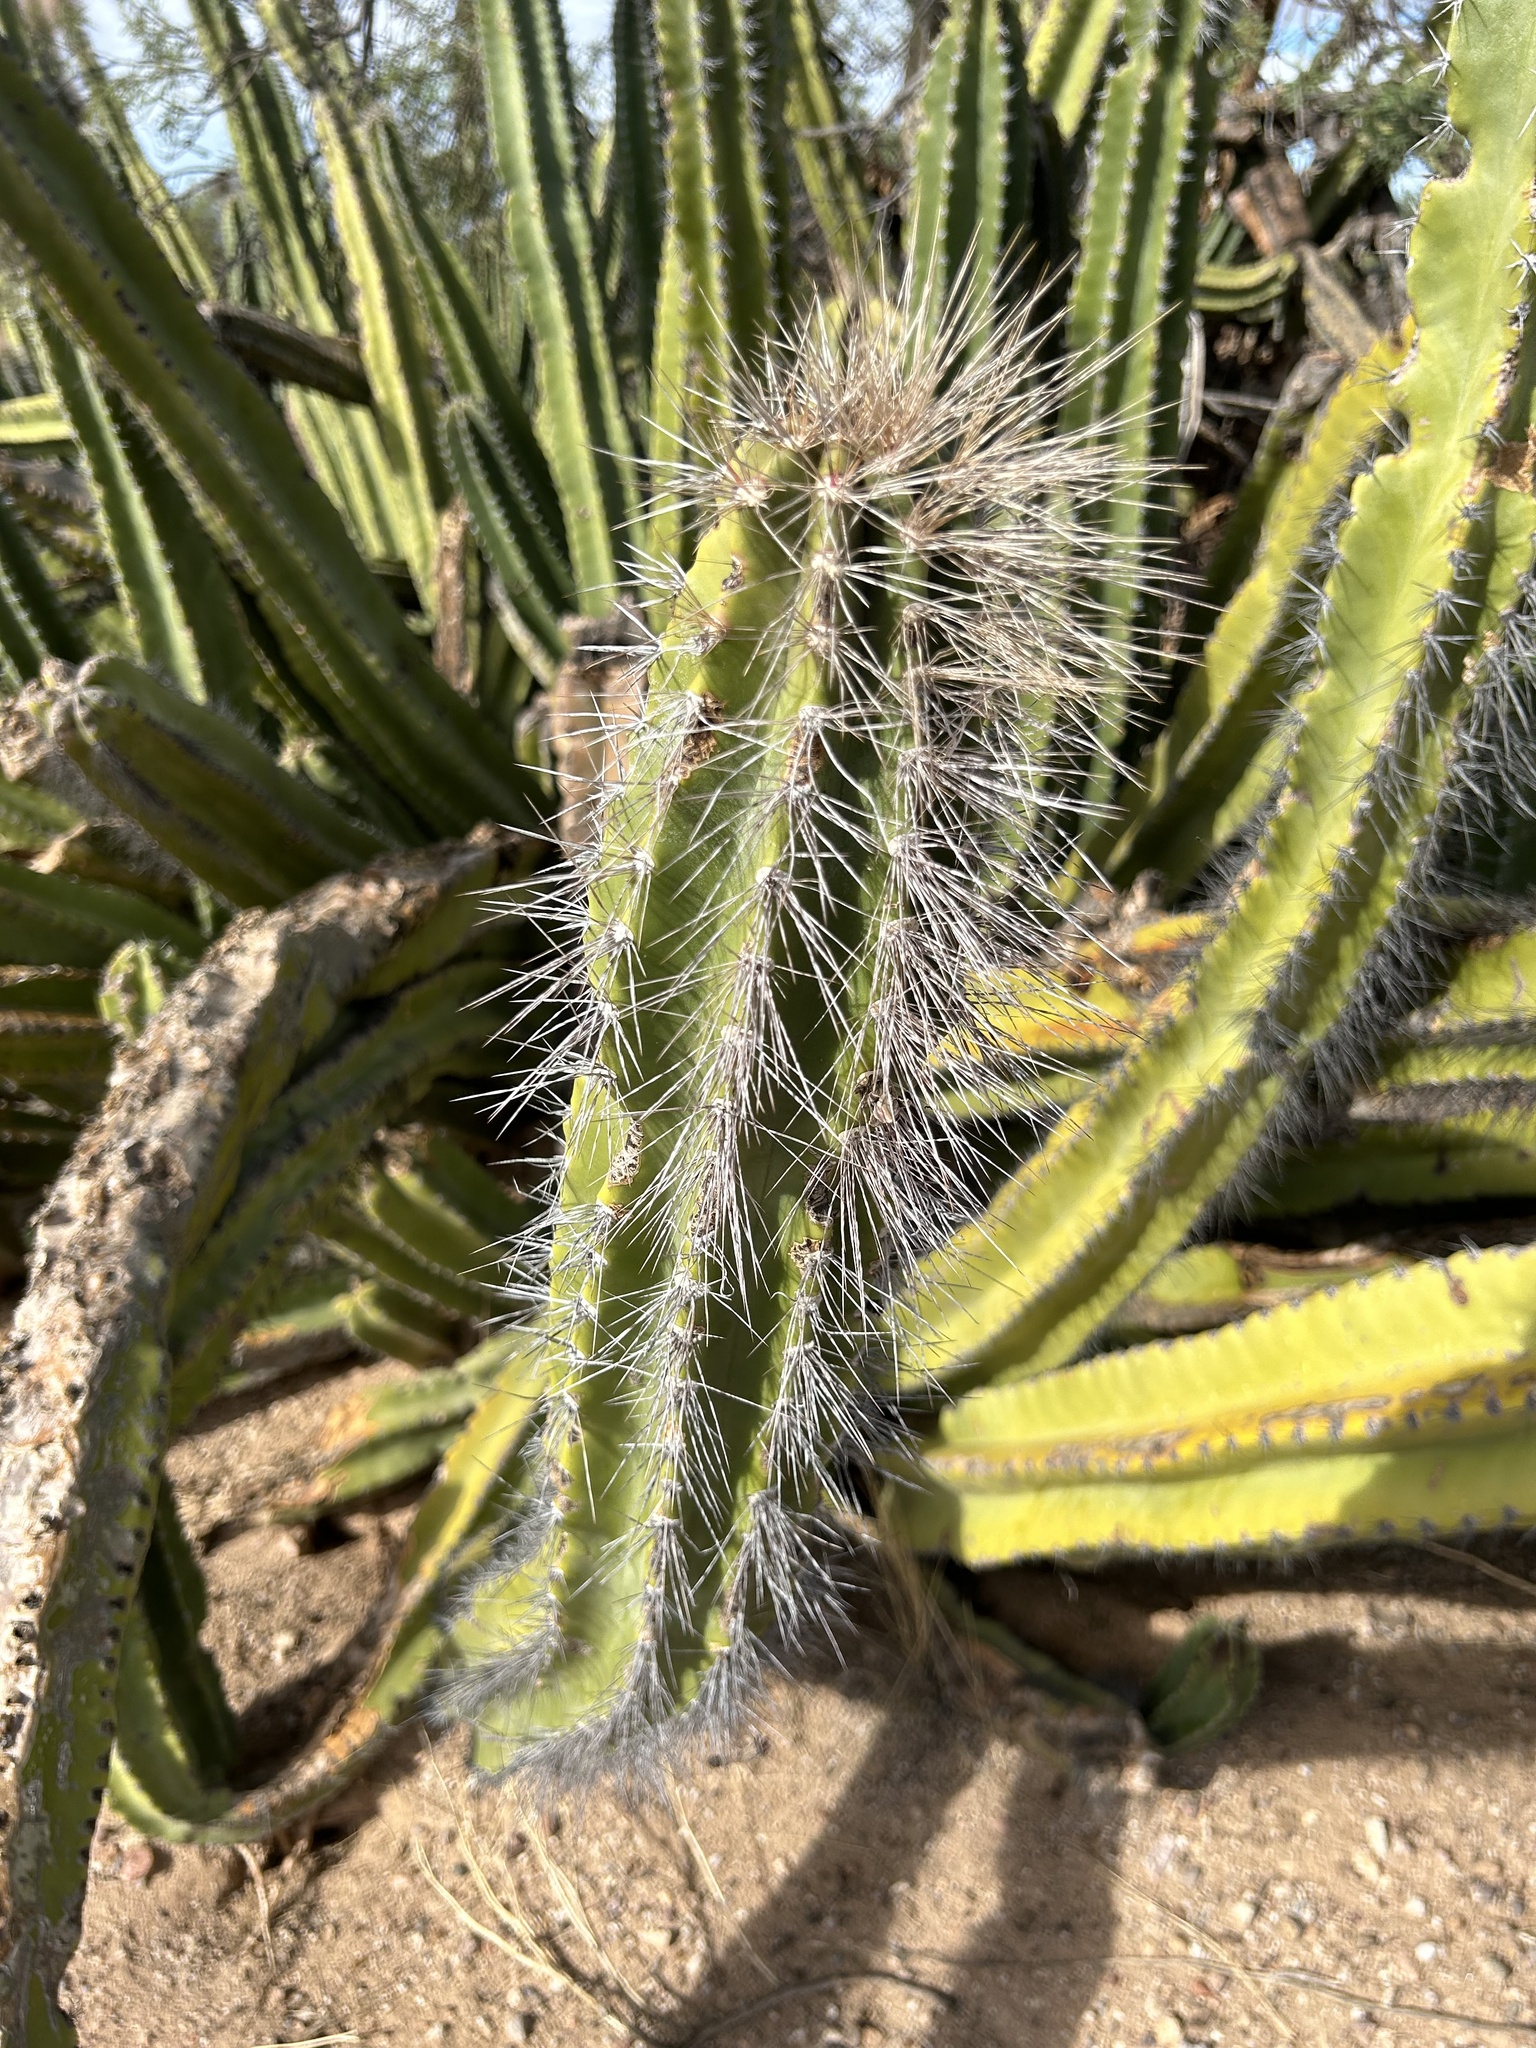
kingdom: Plantae
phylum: Tracheophyta
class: Magnoliopsida
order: Caryophyllales
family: Cactaceae
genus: Pachycereus
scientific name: Pachycereus schottii
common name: Senita cactus
